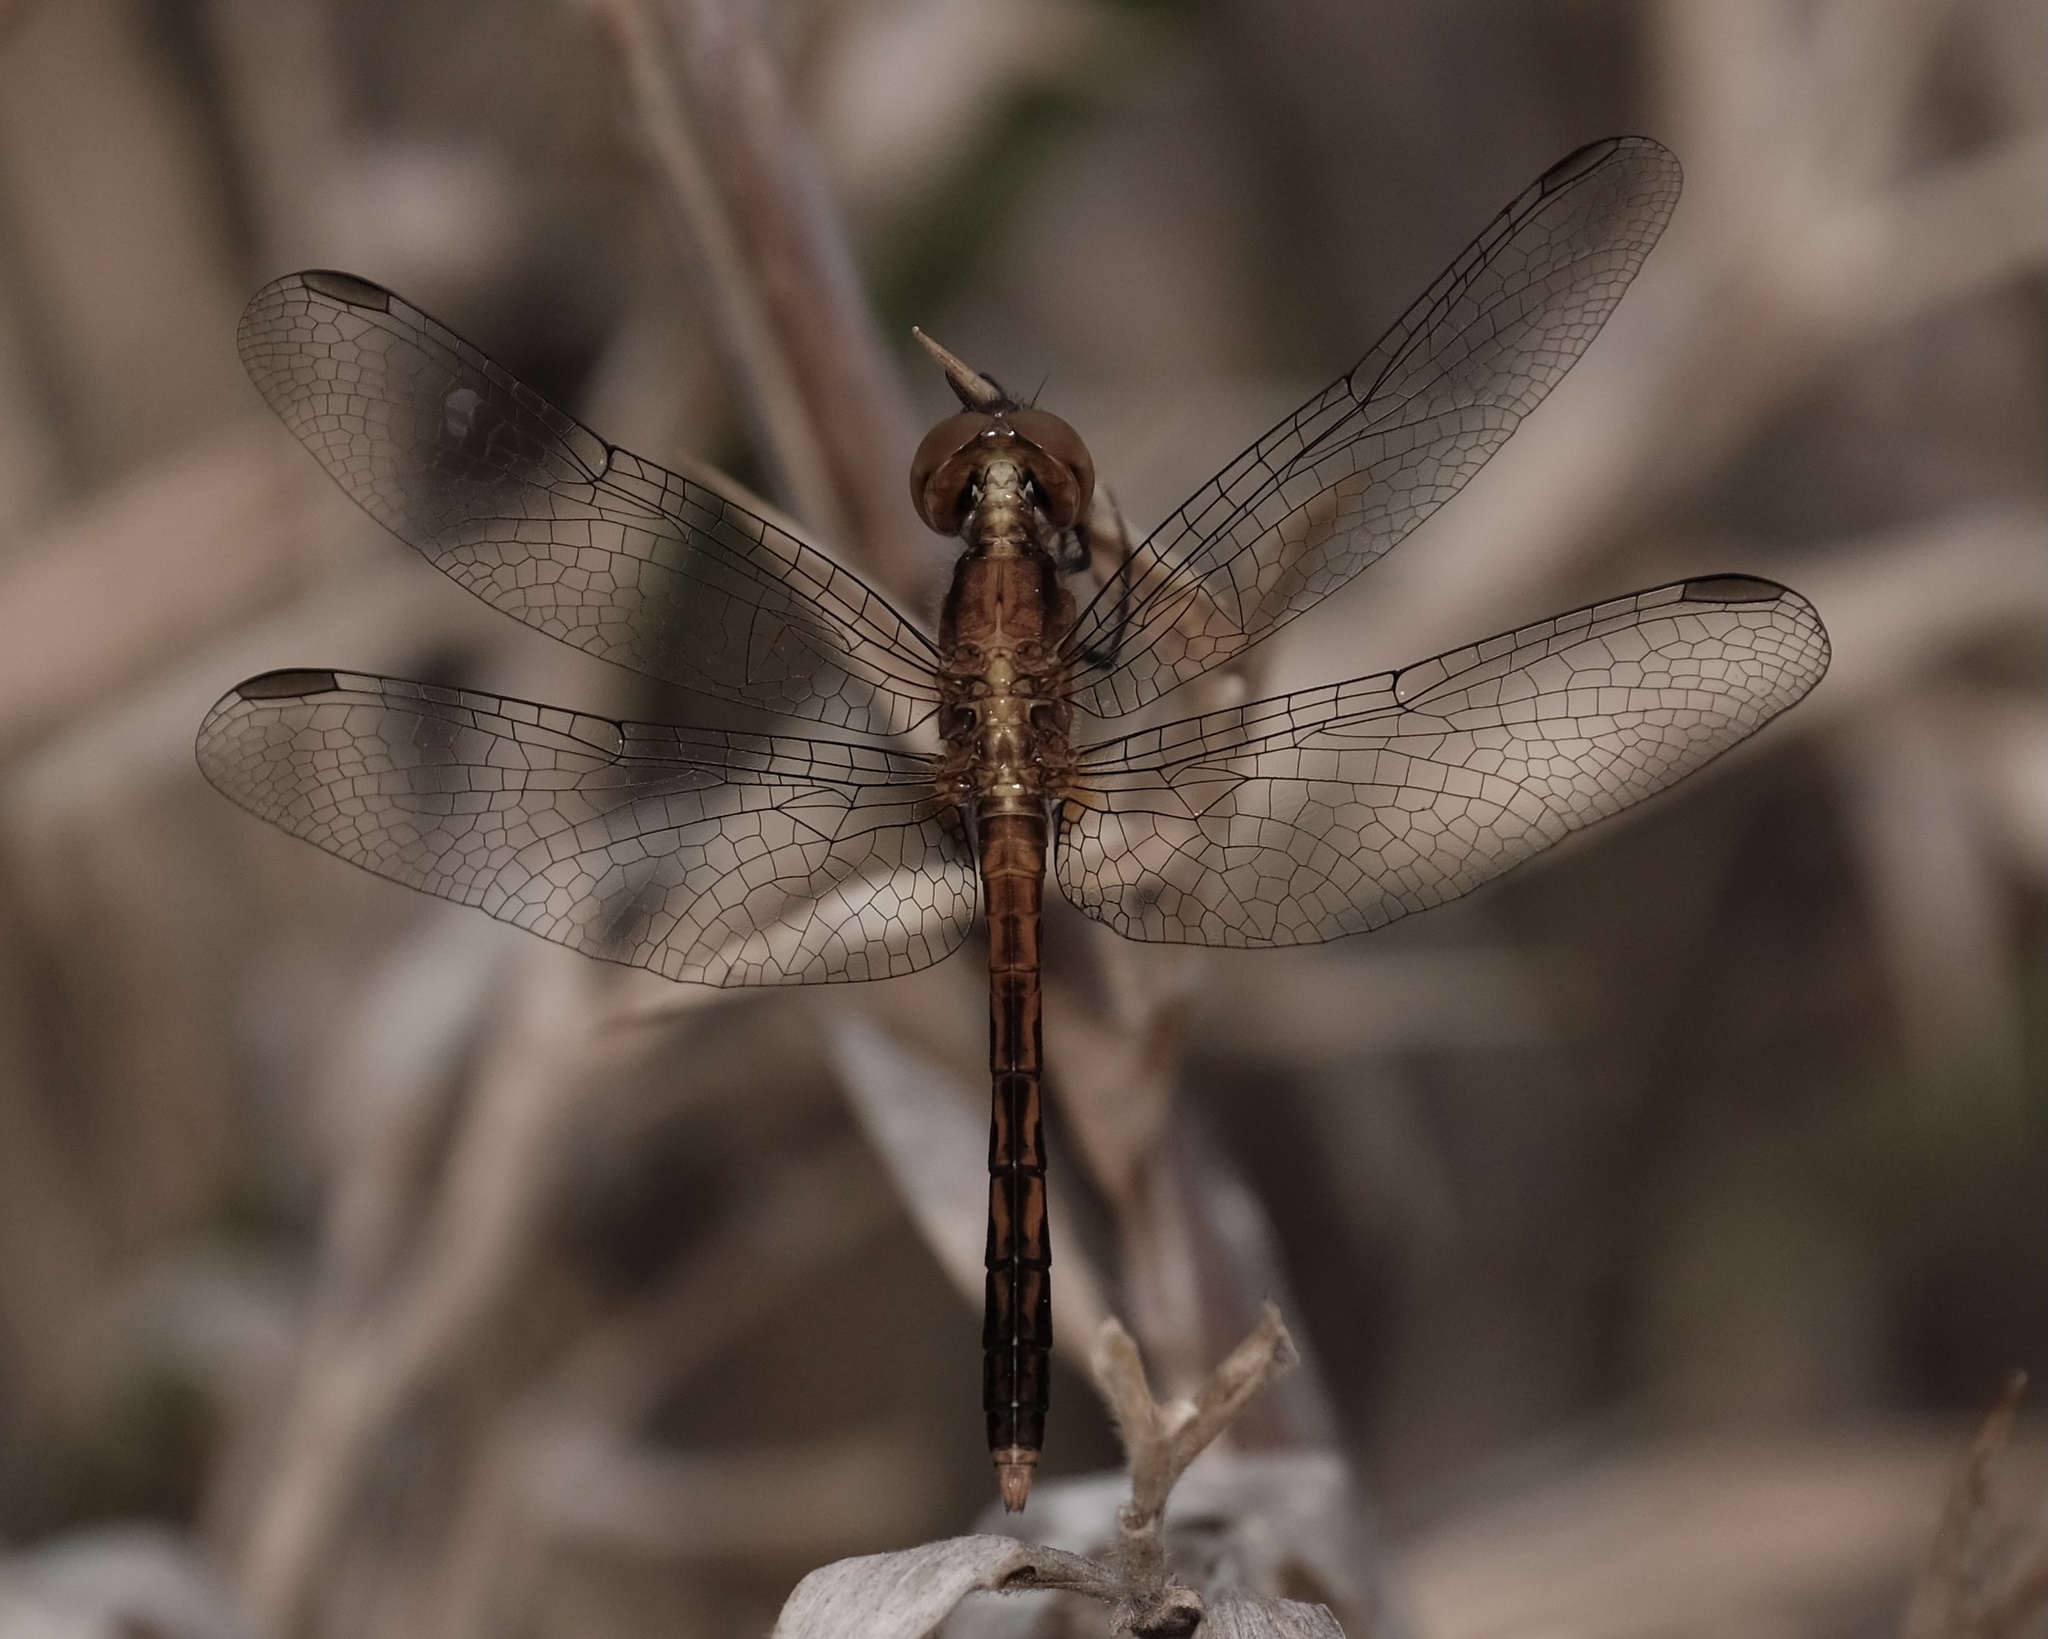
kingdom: Animalia
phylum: Arthropoda
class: Insecta
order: Odonata
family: Libellulidae
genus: Erythrodiplax
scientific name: Erythrodiplax minuscula
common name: Little blue dragonlet
